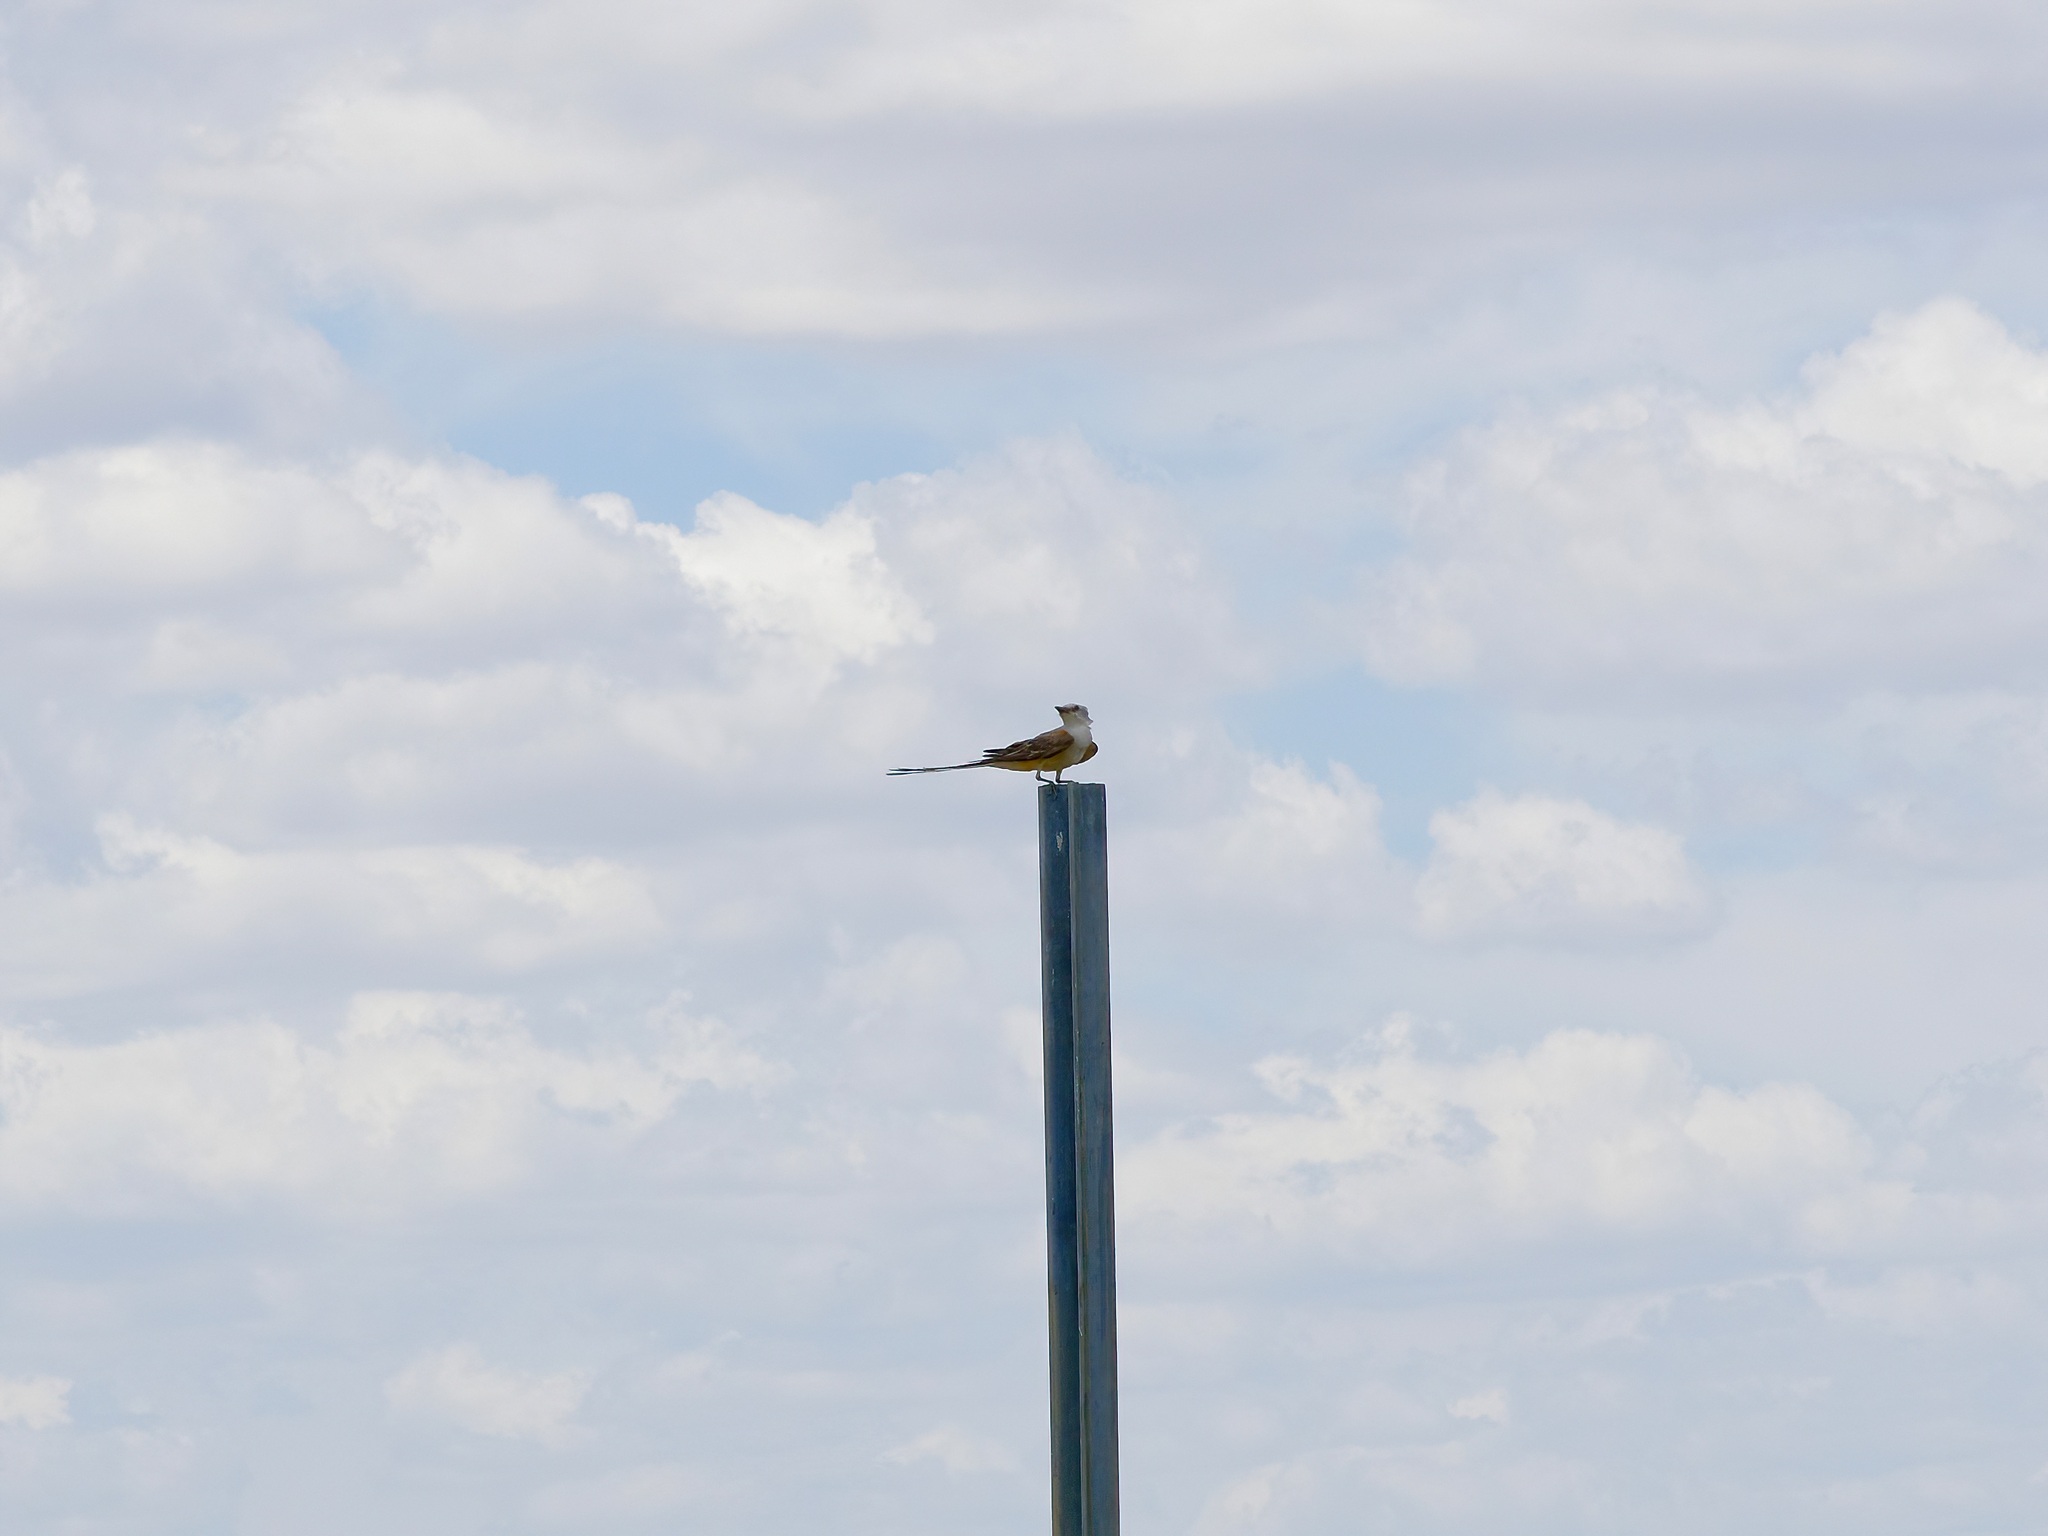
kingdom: Animalia
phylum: Chordata
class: Aves
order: Passeriformes
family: Tyrannidae
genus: Tyrannus
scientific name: Tyrannus forficatus
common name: Scissor-tailed flycatcher
